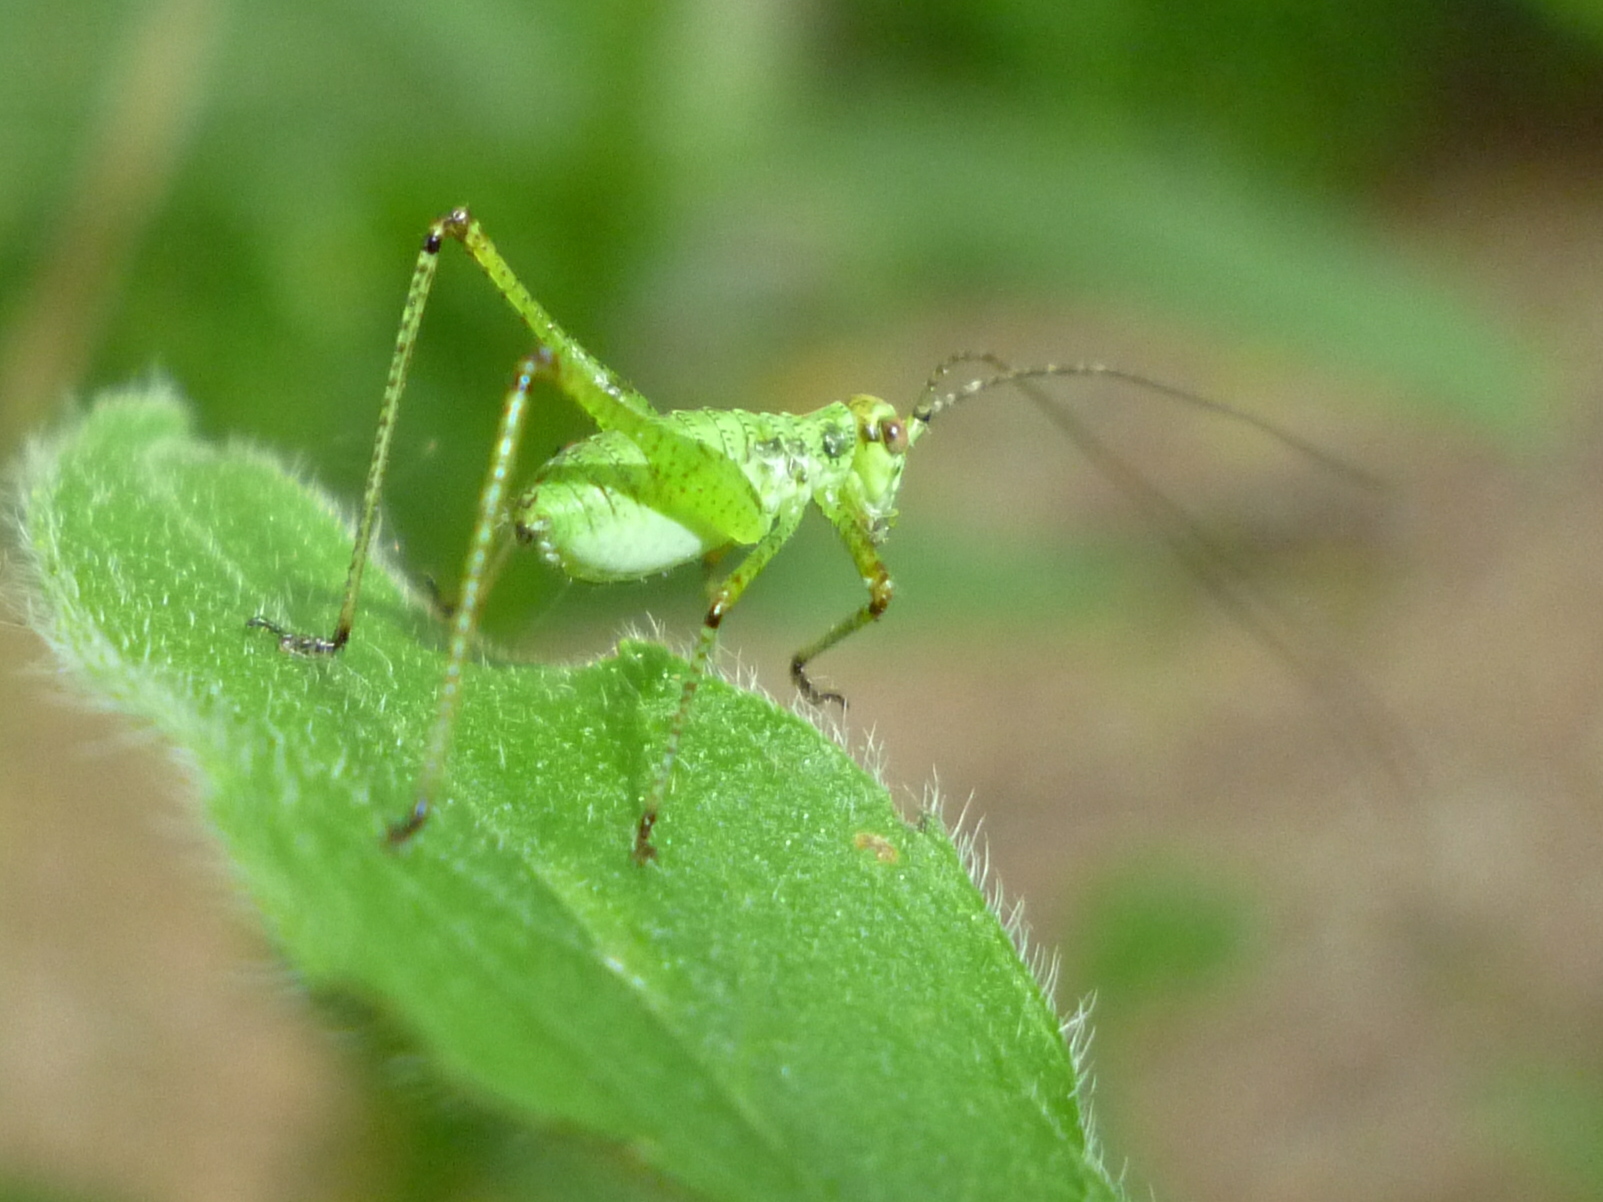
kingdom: Animalia
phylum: Arthropoda
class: Insecta
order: Orthoptera
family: Tettigoniidae
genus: Phaneroptera
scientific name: Phaneroptera nana
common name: Southern sickle bush-cricket
